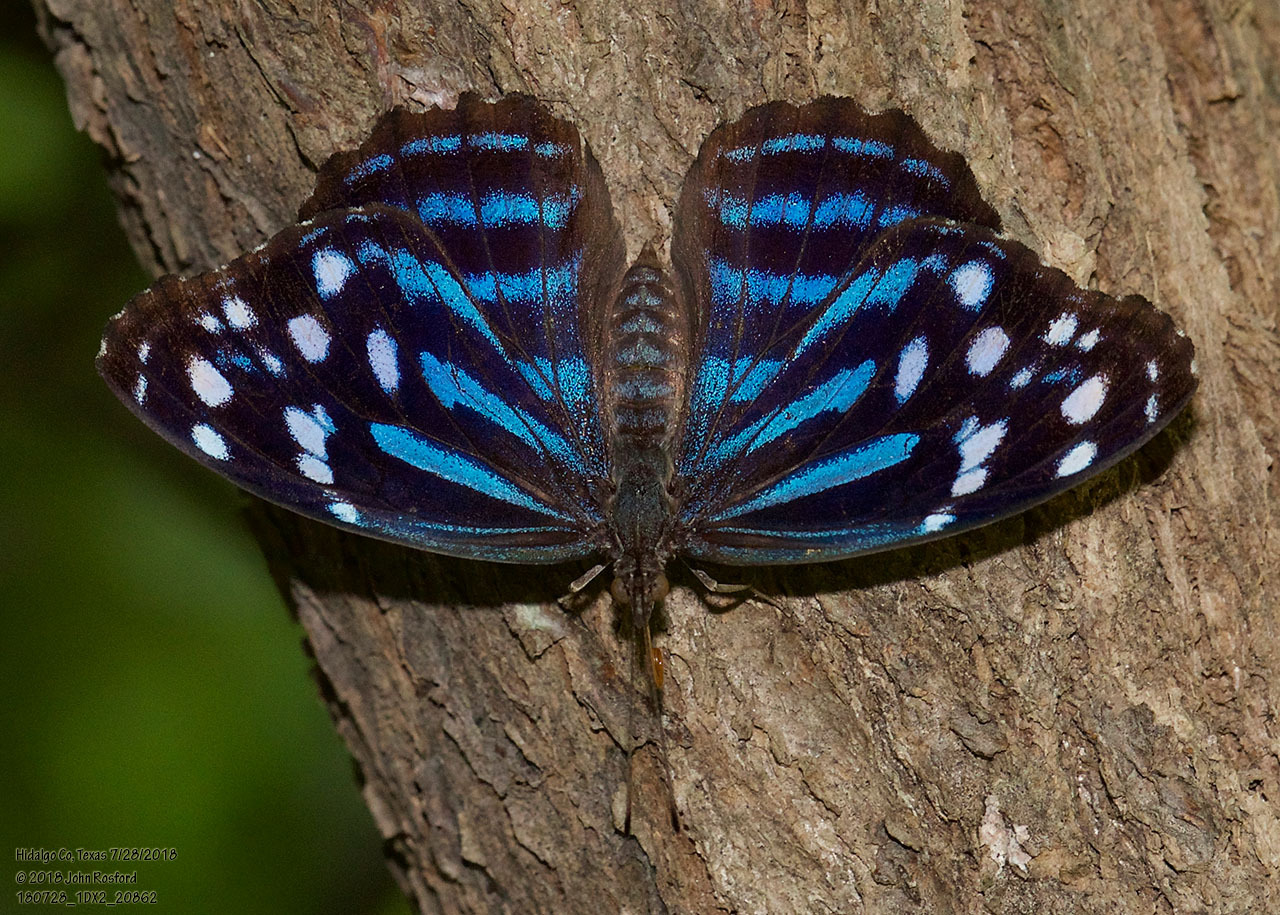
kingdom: Animalia
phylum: Arthropoda
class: Insecta
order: Lepidoptera
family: Nymphalidae
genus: Myscelia
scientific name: Myscelia ethusa
